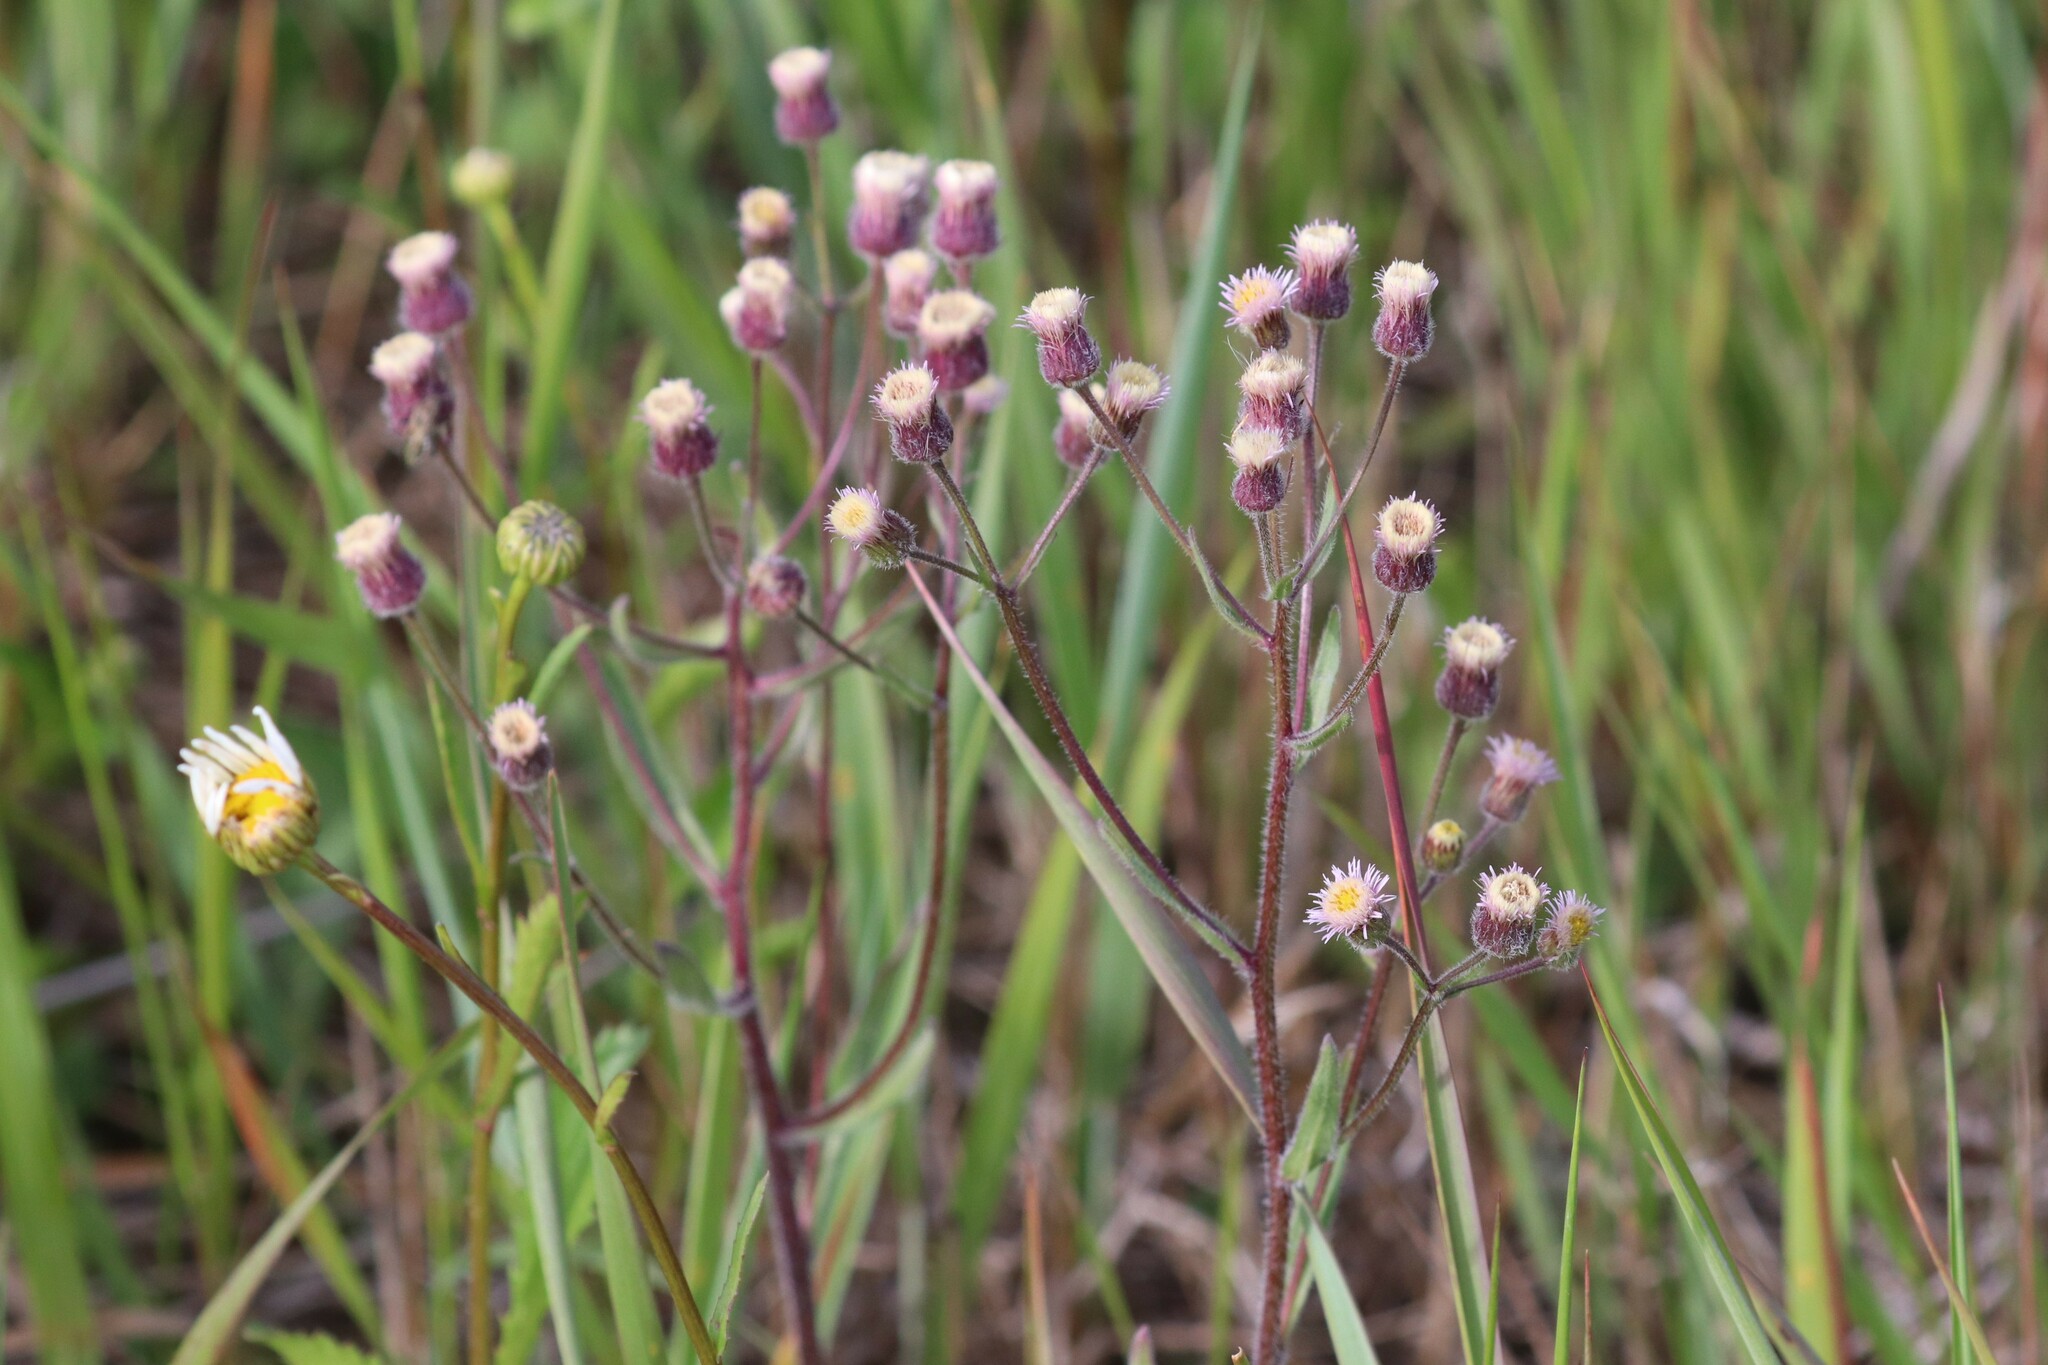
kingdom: Plantae
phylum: Tracheophyta
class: Magnoliopsida
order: Asterales
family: Asteraceae
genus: Erigeron
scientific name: Erigeron acris
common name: Blue fleabane
